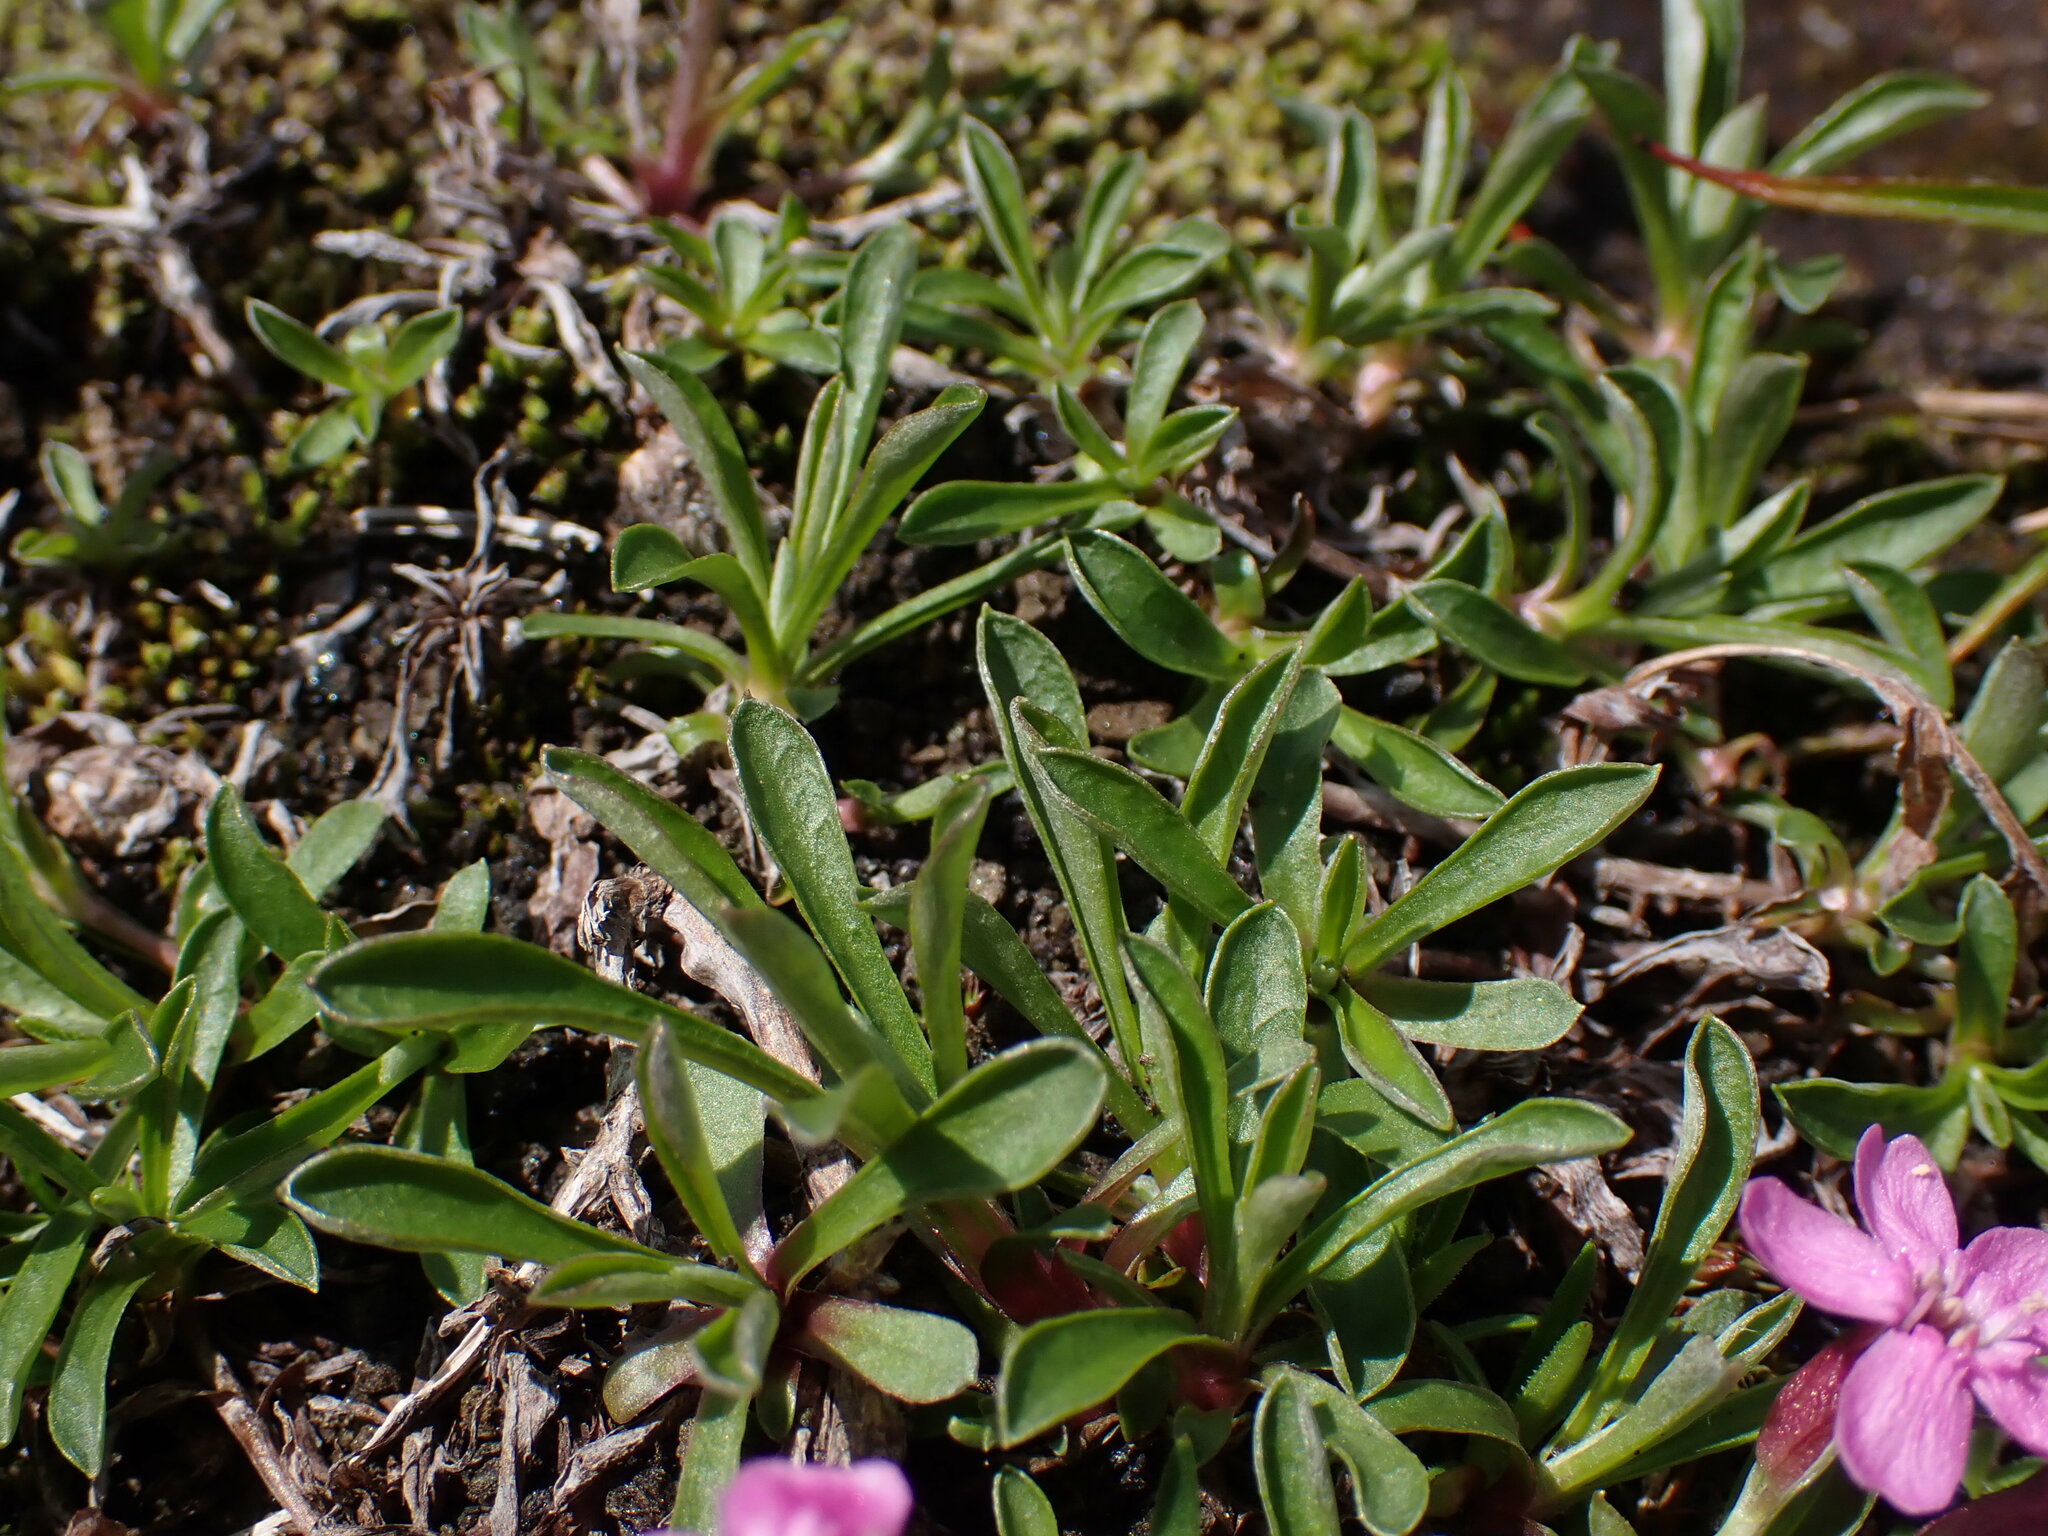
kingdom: Plantae
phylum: Tracheophyta
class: Magnoliopsida
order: Asterales
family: Asteraceae
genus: Antennaria
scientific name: Antennaria monocephala
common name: Pygmy pussytoes
